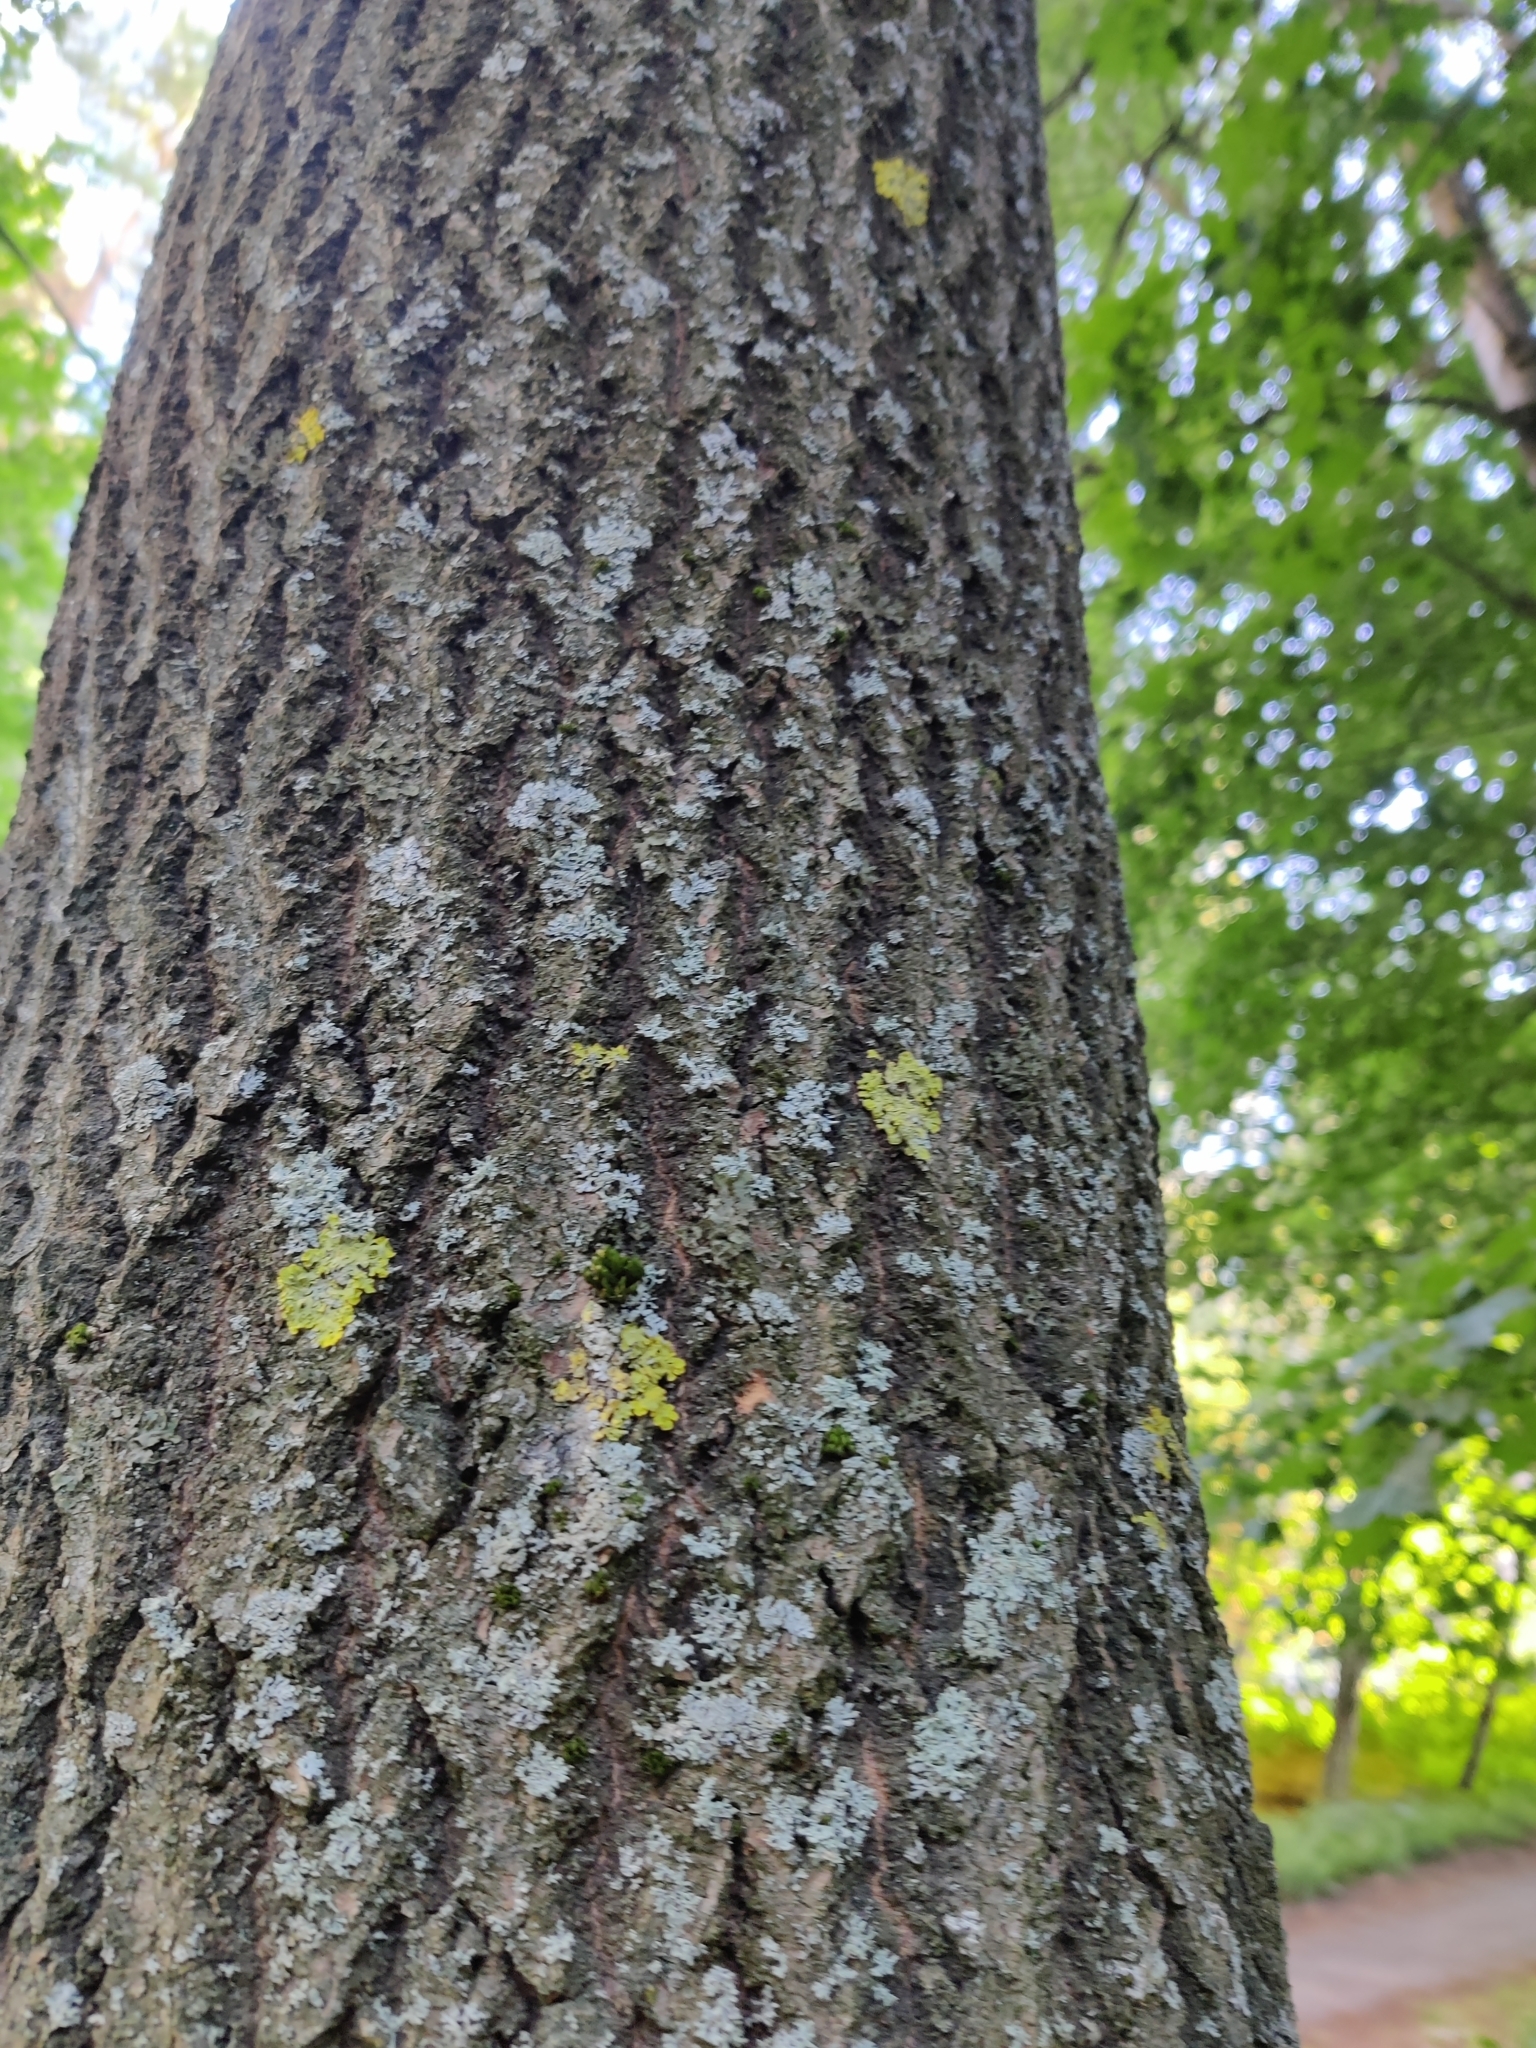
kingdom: Fungi
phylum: Ascomycota
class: Lecanoromycetes
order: Teloschistales
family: Teloschistaceae
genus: Xanthoria
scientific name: Xanthoria parietina
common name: Common orange lichen
